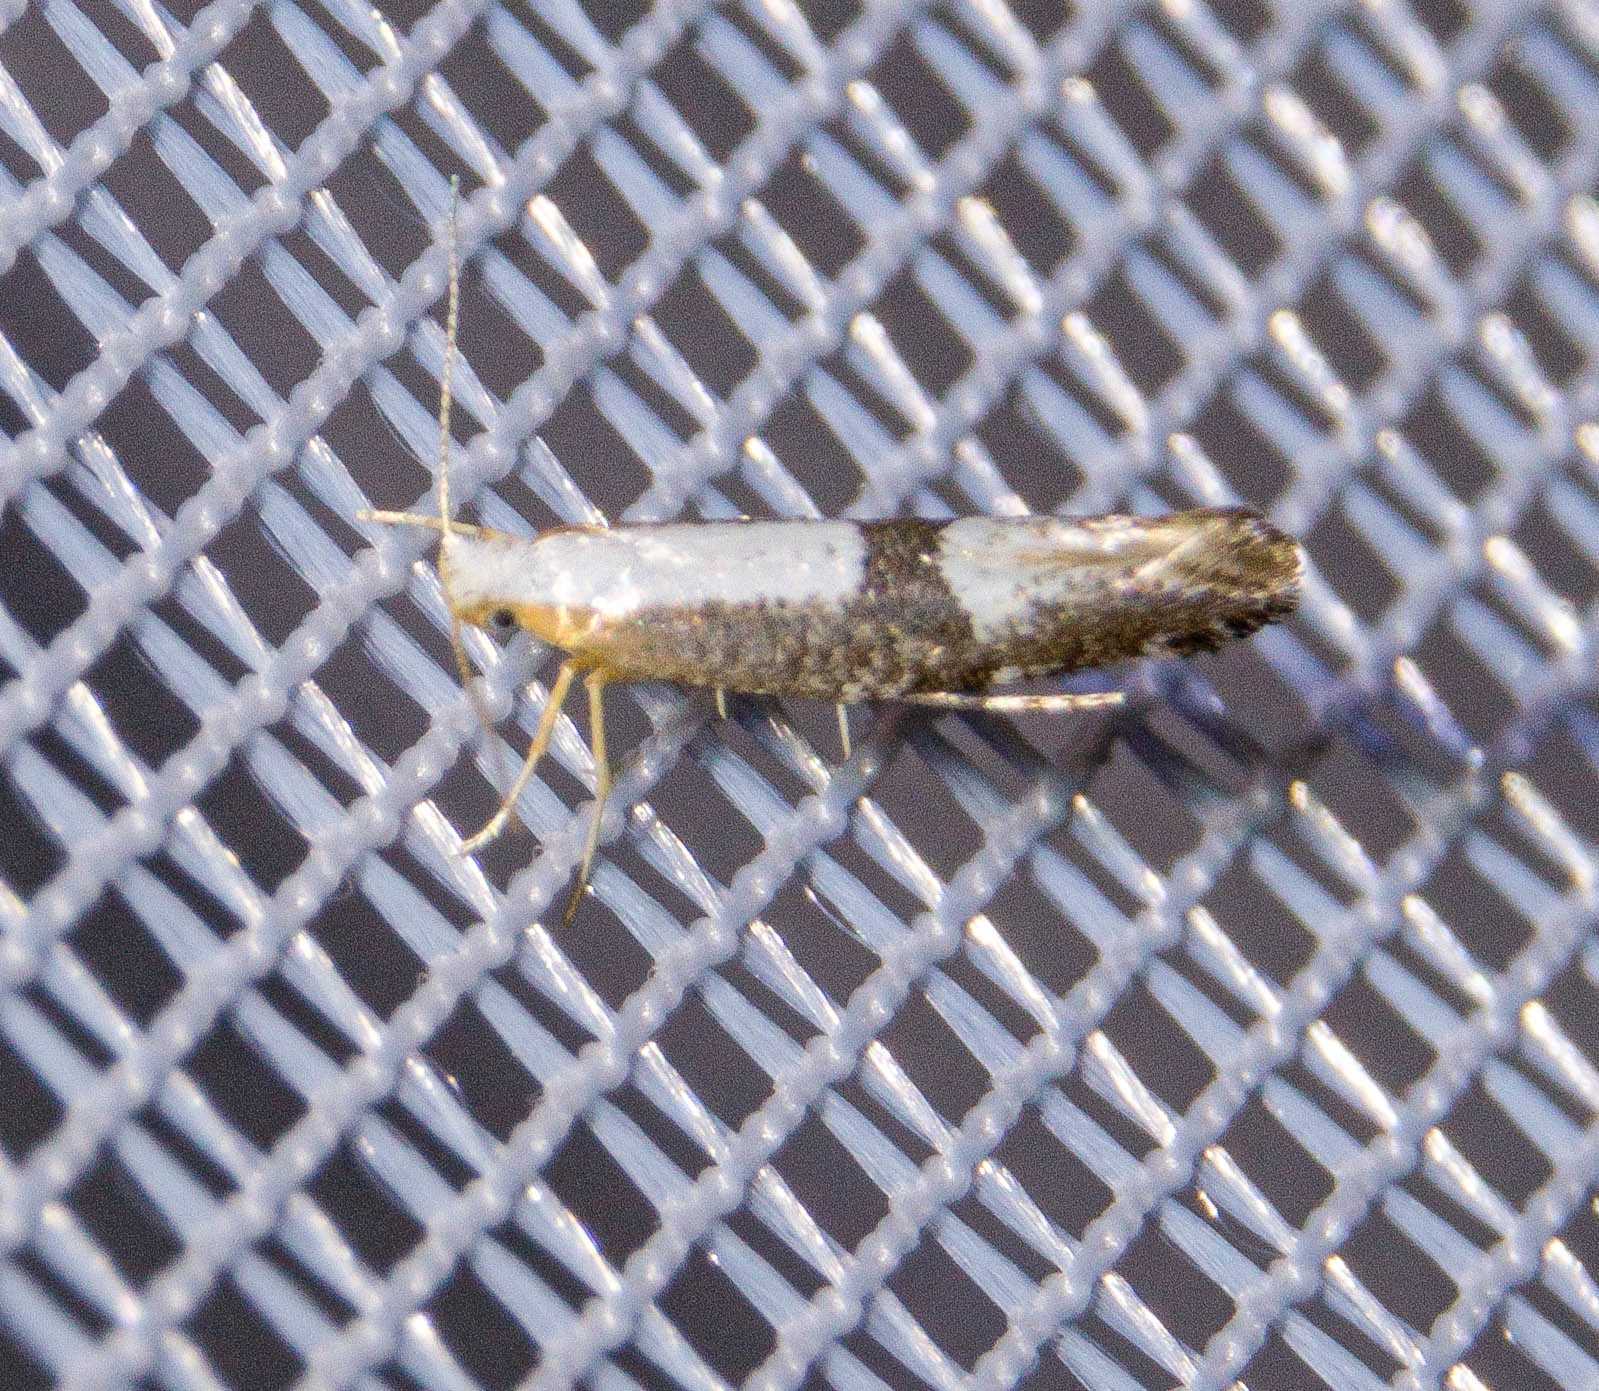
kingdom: Animalia
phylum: Arthropoda
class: Insecta
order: Lepidoptera
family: Argyresthiidae
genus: Argyresthia
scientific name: Argyresthia spinosella
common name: Blackthorn argent
